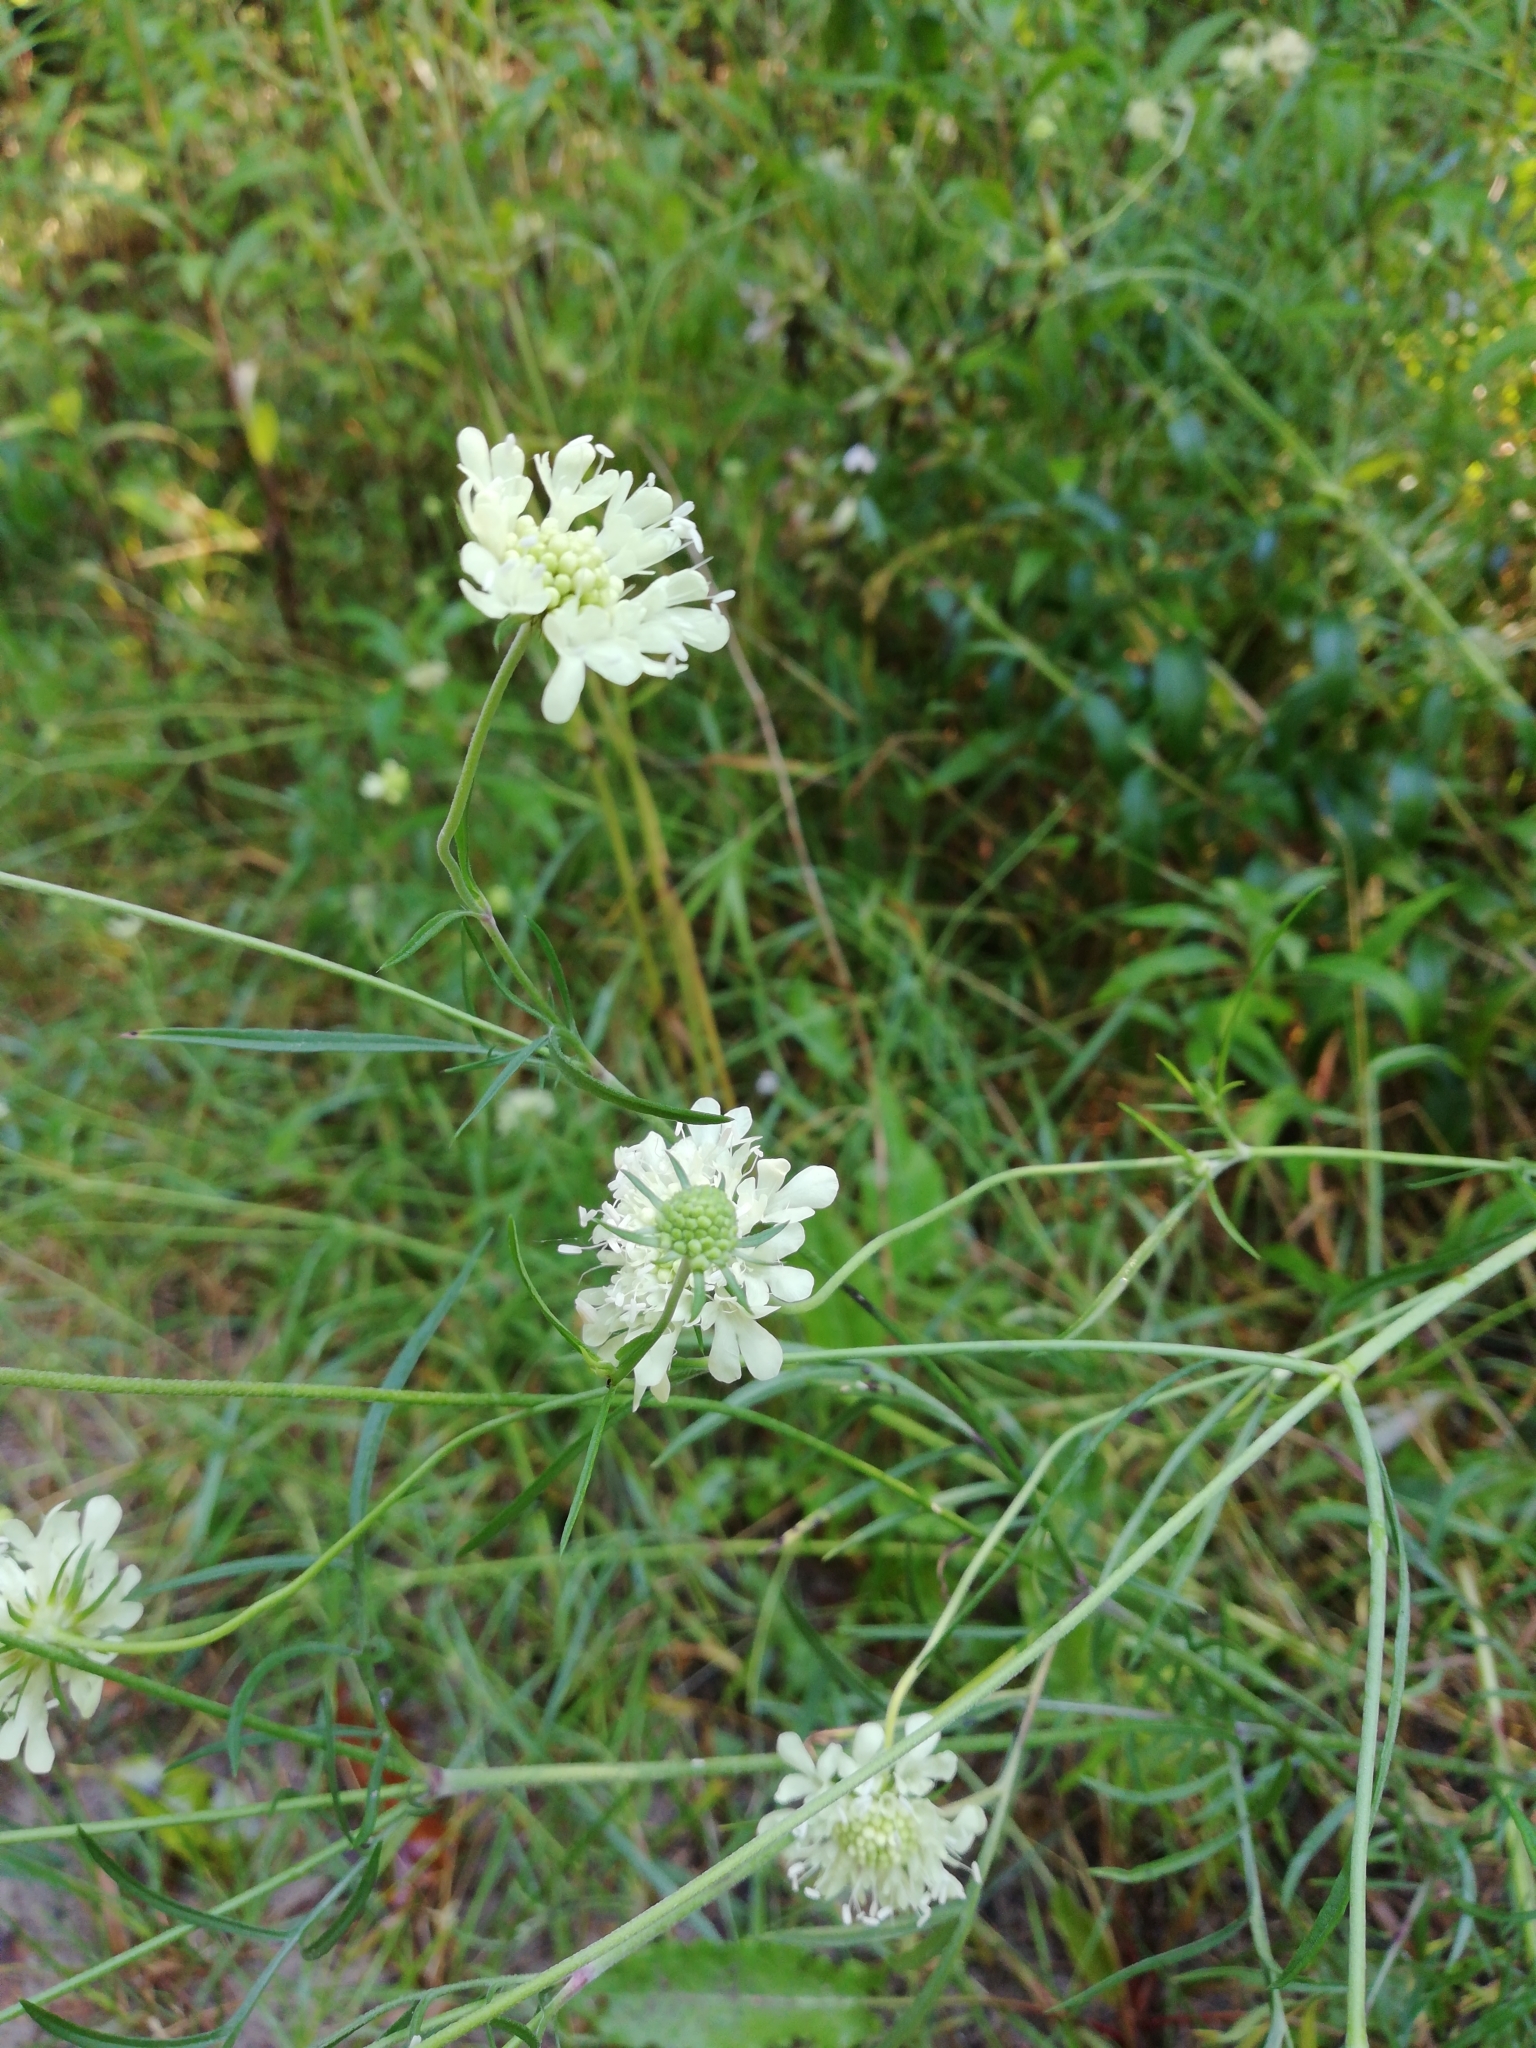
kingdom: Plantae
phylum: Tracheophyta
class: Magnoliopsida
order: Dipsacales
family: Caprifoliaceae
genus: Scabiosa
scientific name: Scabiosa ochroleuca
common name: Cream pincushions
